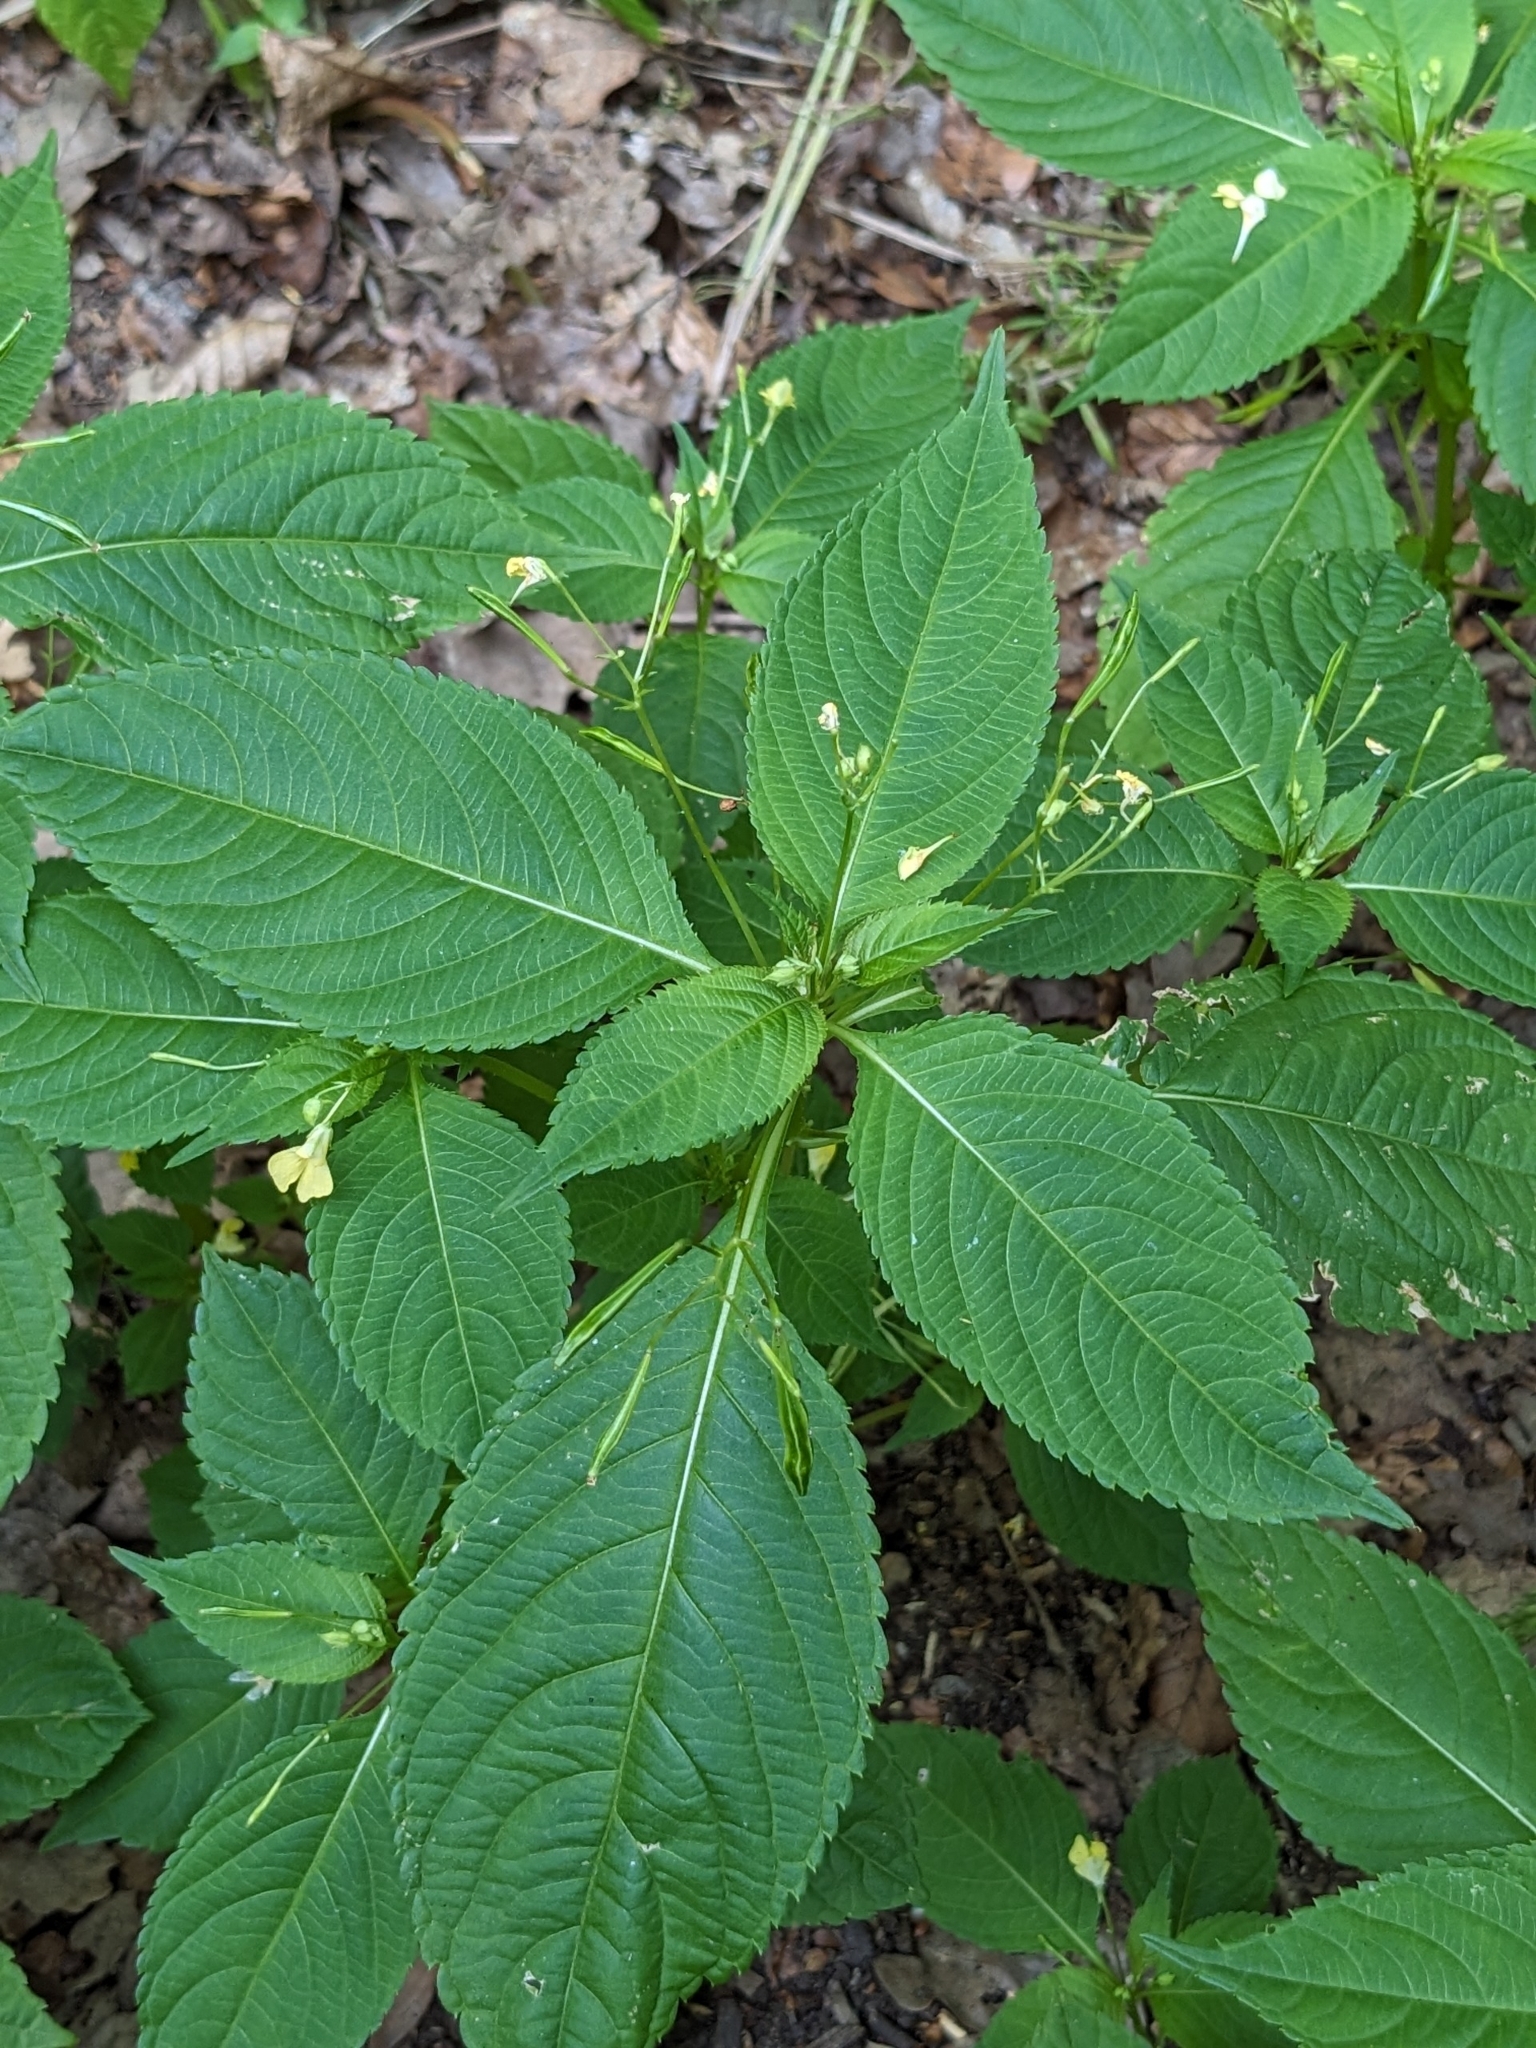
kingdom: Plantae
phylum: Tracheophyta
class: Magnoliopsida
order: Ericales
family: Balsaminaceae
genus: Impatiens
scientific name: Impatiens parviflora
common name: Small balsam
